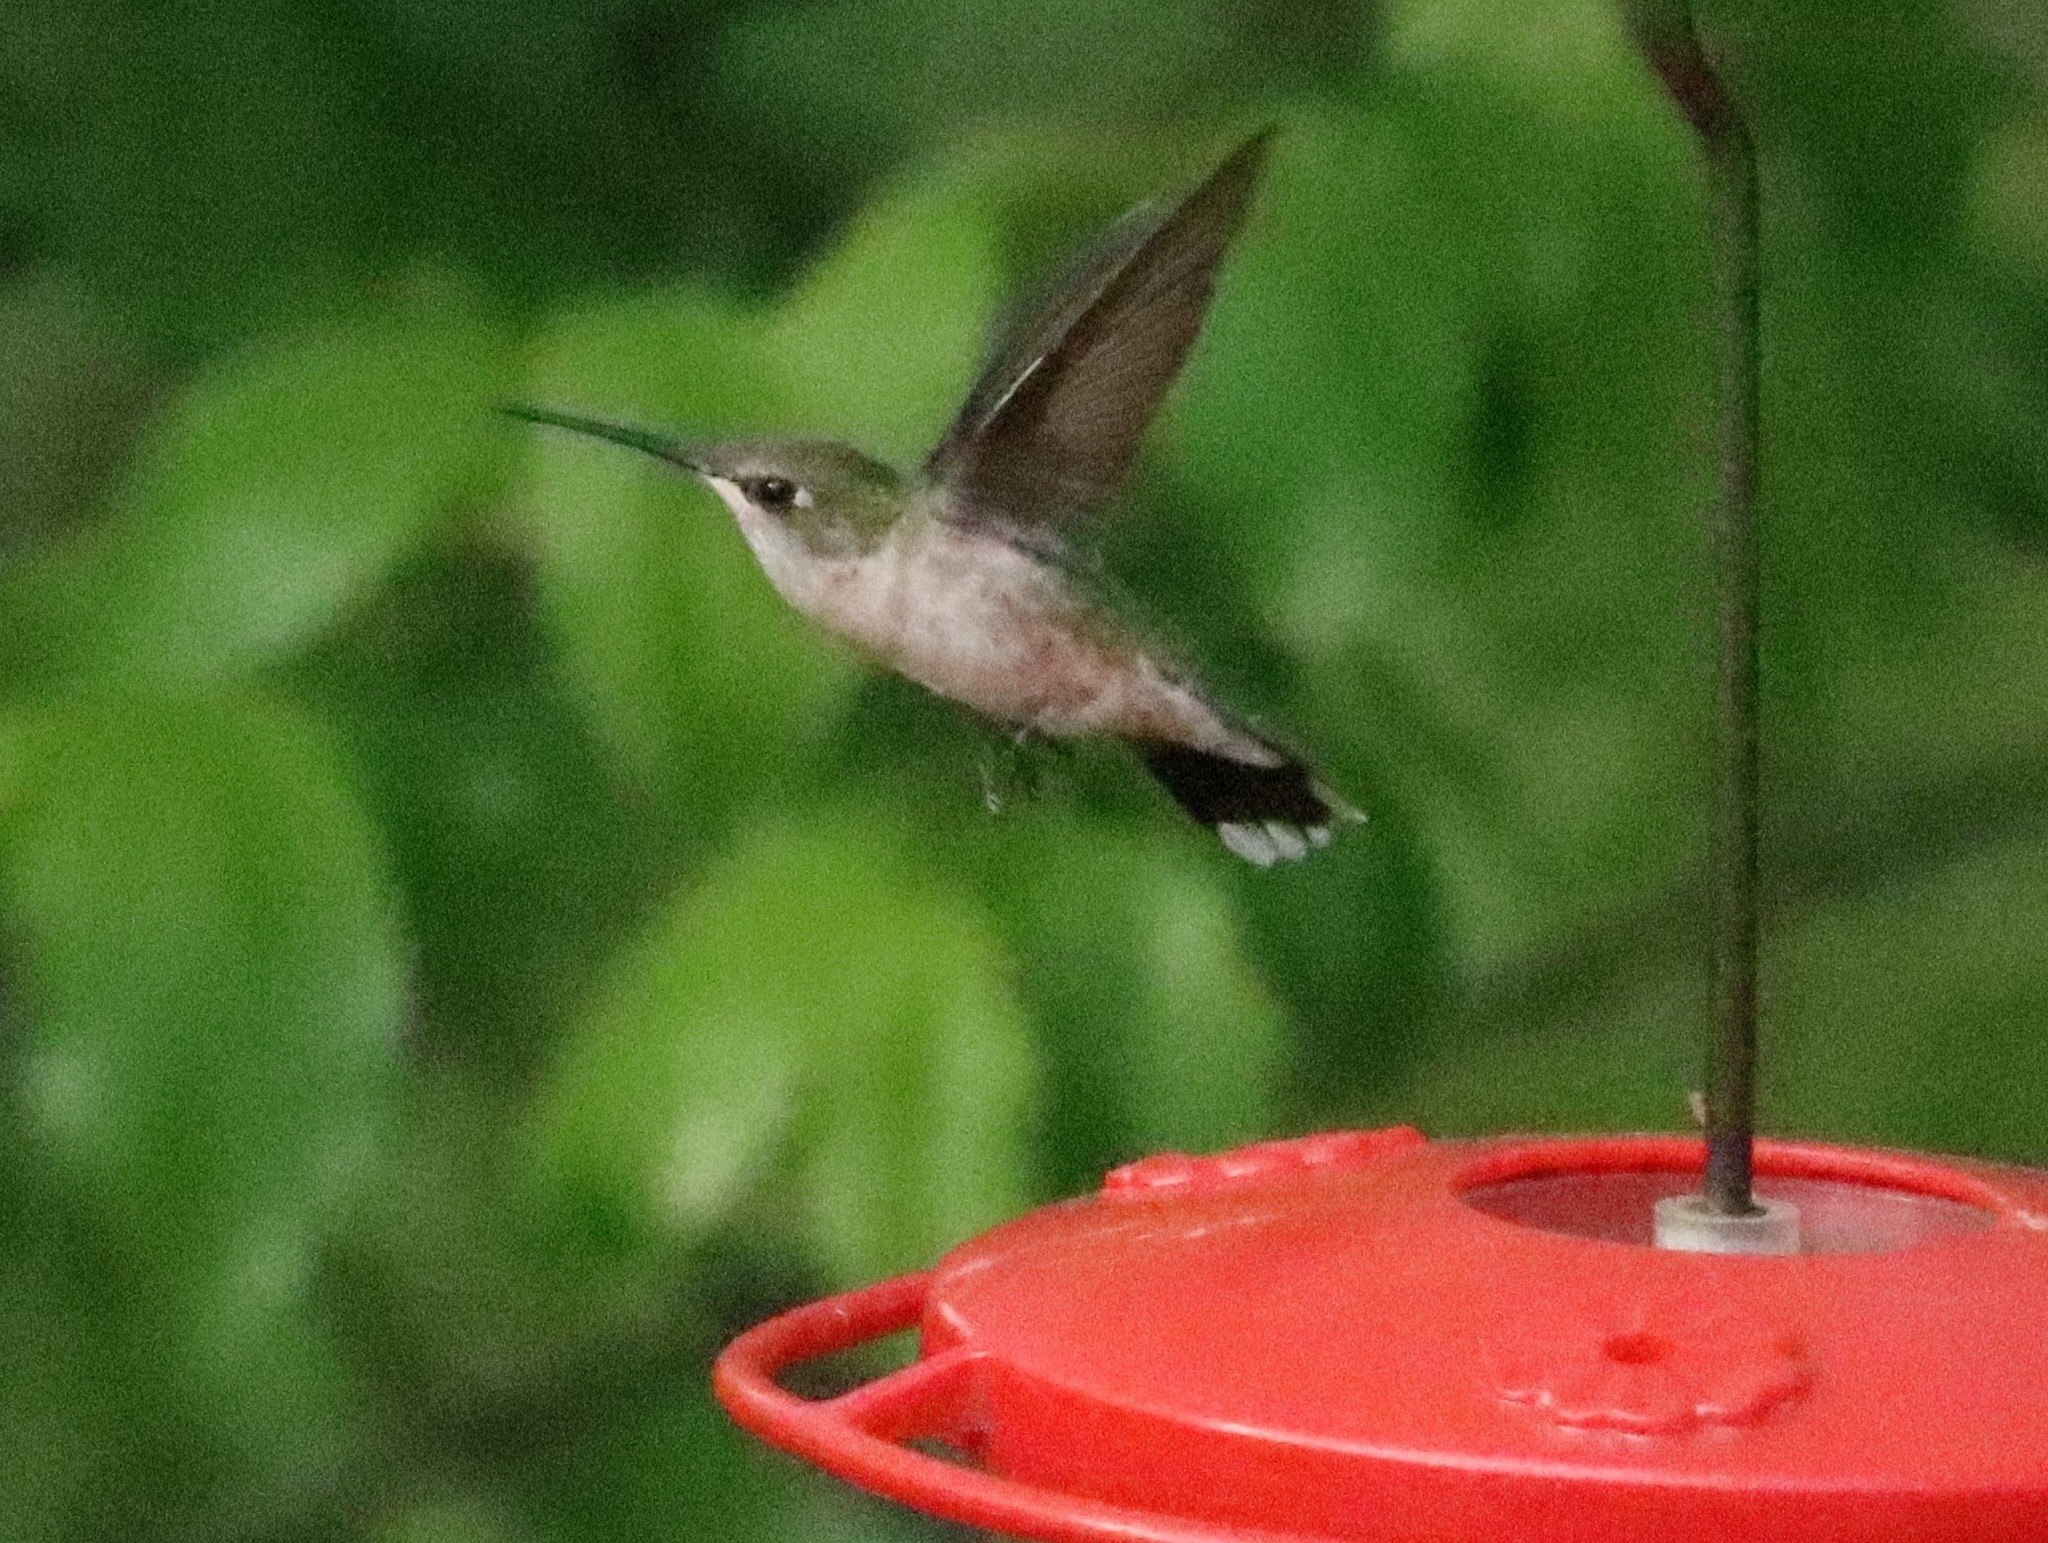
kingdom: Animalia
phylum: Chordata
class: Aves
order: Apodiformes
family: Trochilidae
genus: Archilochus
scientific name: Archilochus colubris
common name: Ruby-throated hummingbird
